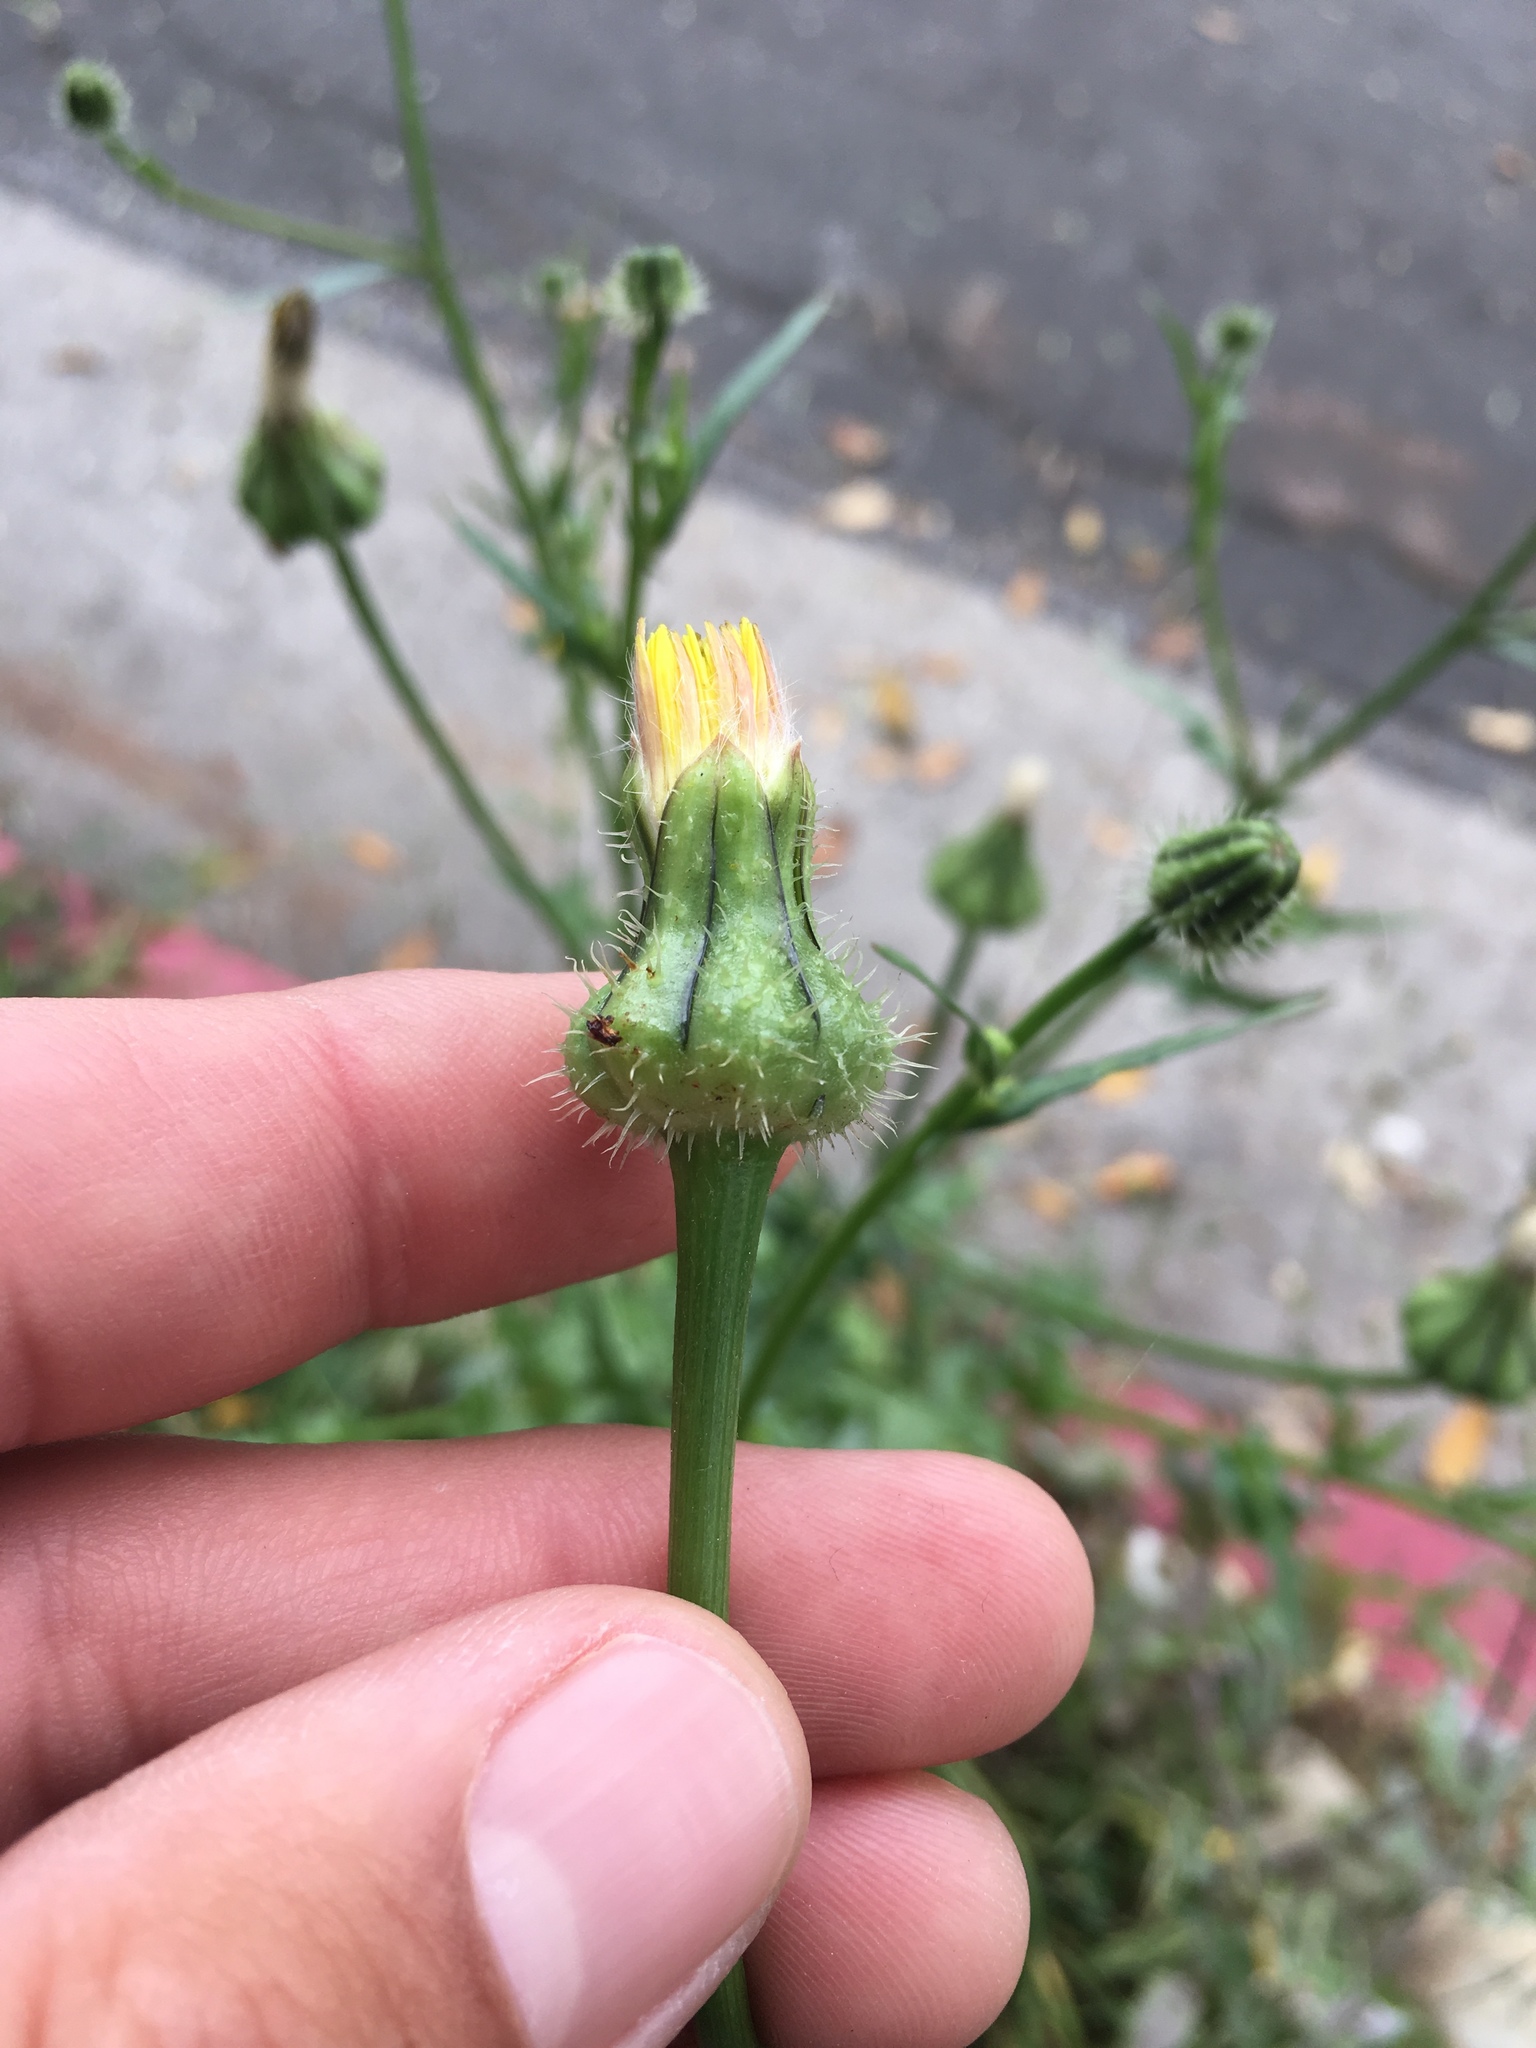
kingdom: Plantae
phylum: Tracheophyta
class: Magnoliopsida
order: Asterales
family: Asteraceae
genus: Urospermum
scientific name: Urospermum picroides
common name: False hawkbit
